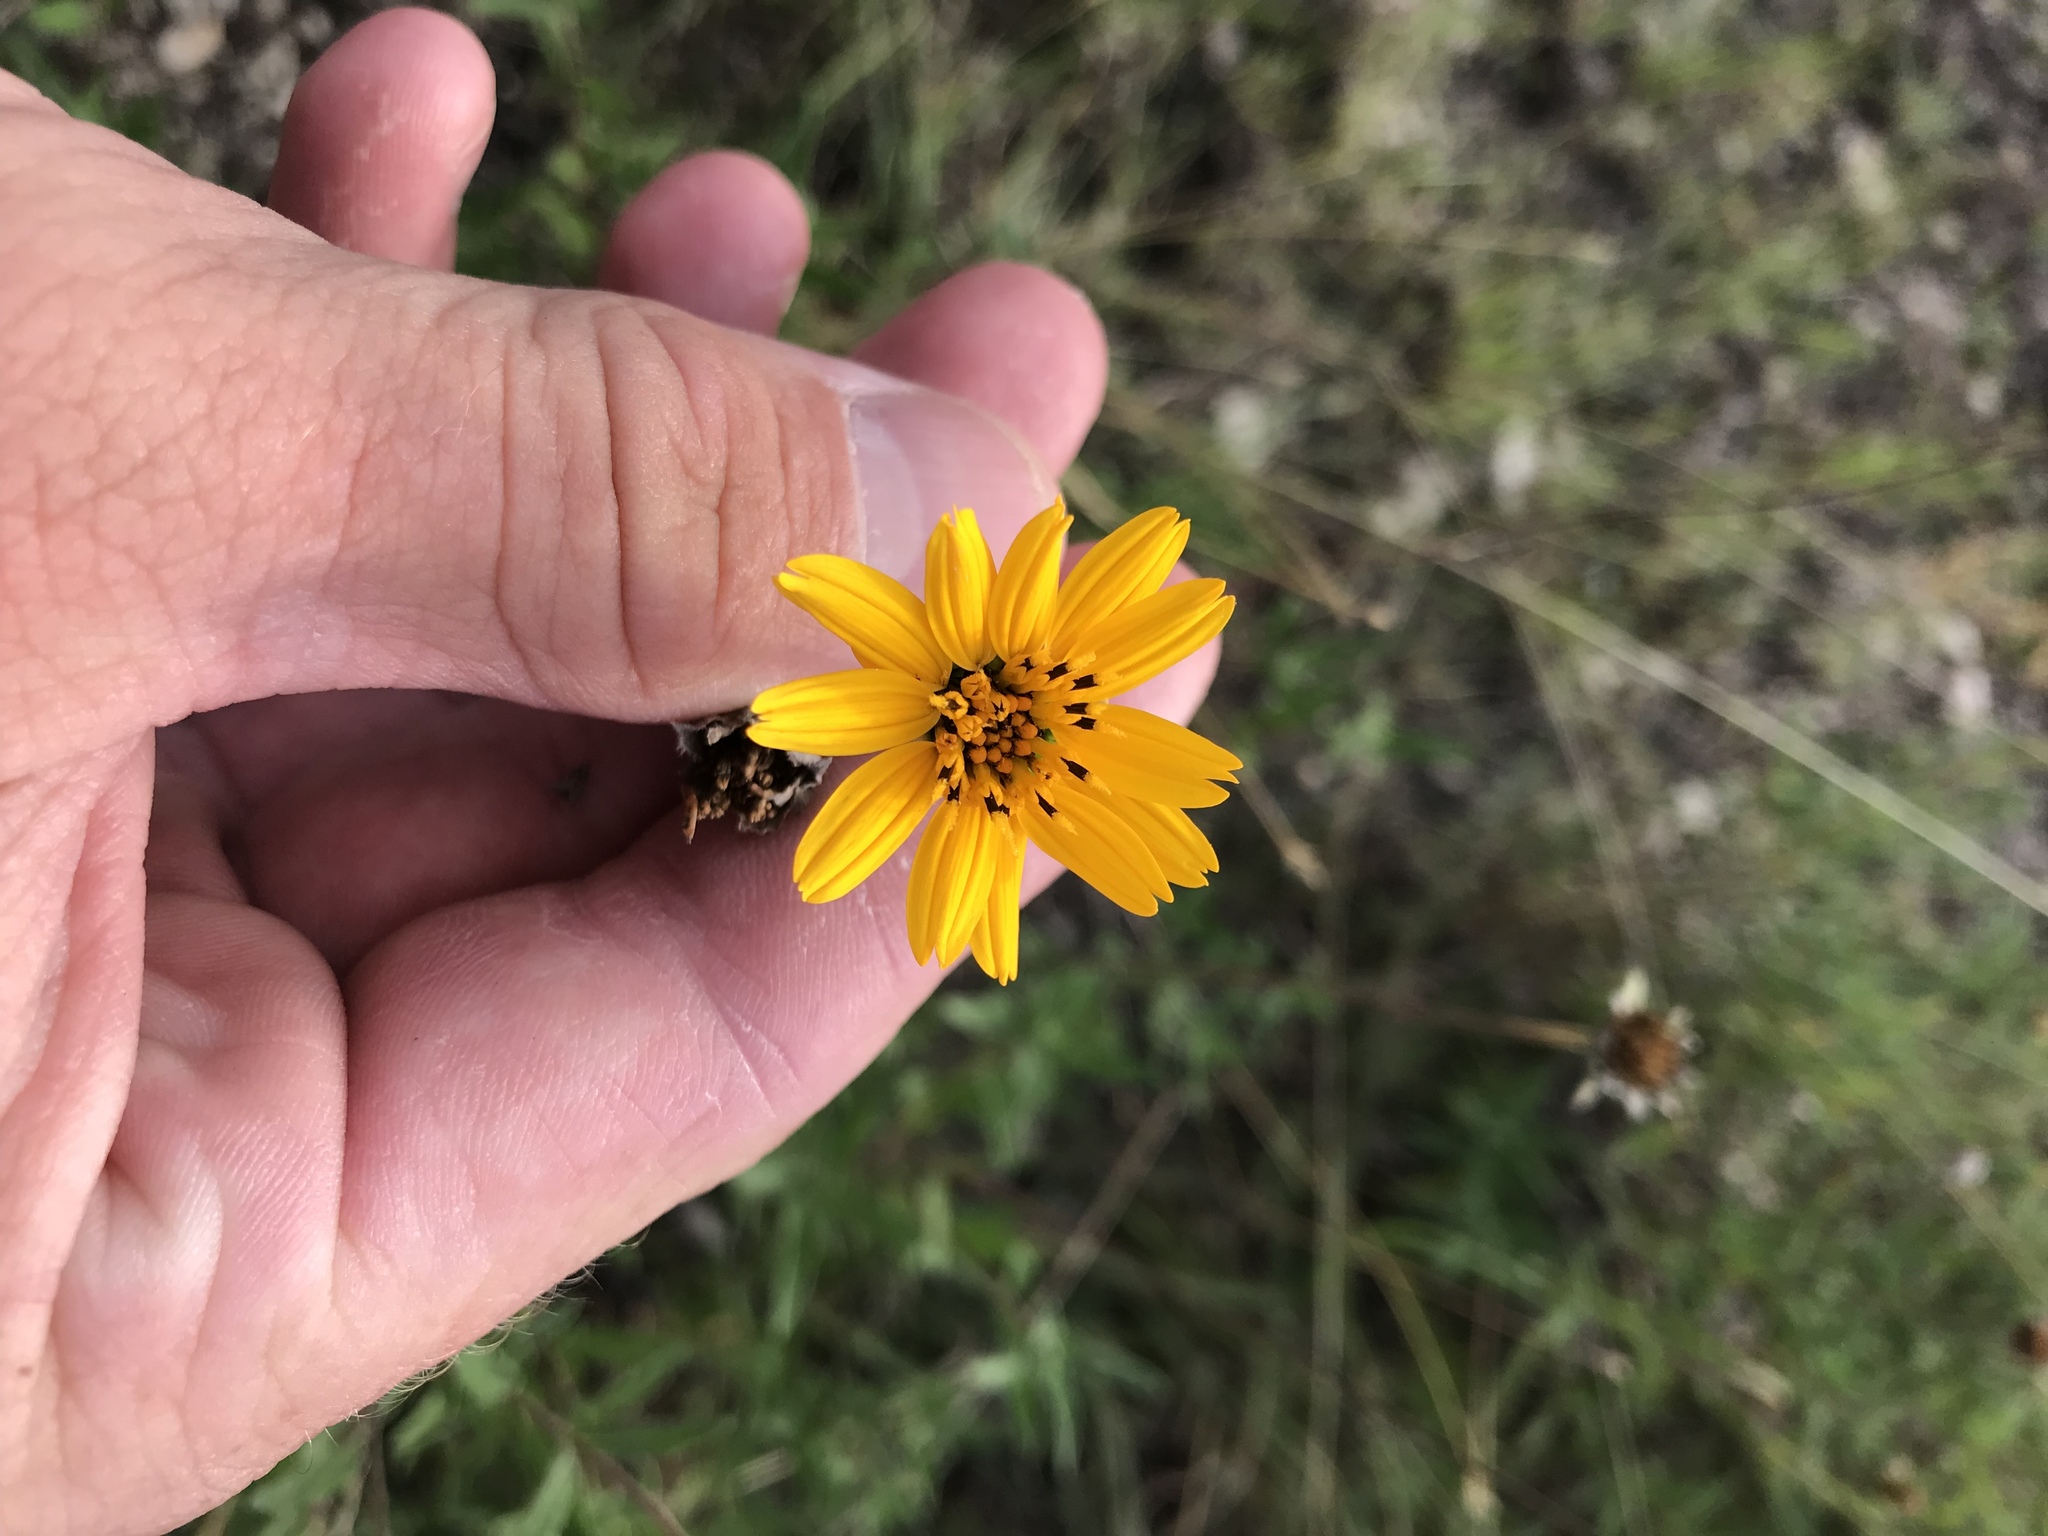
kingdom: Plantae
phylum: Tracheophyta
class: Magnoliopsida
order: Asterales
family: Asteraceae
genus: Wedelia
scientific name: Wedelia acapulcensis
